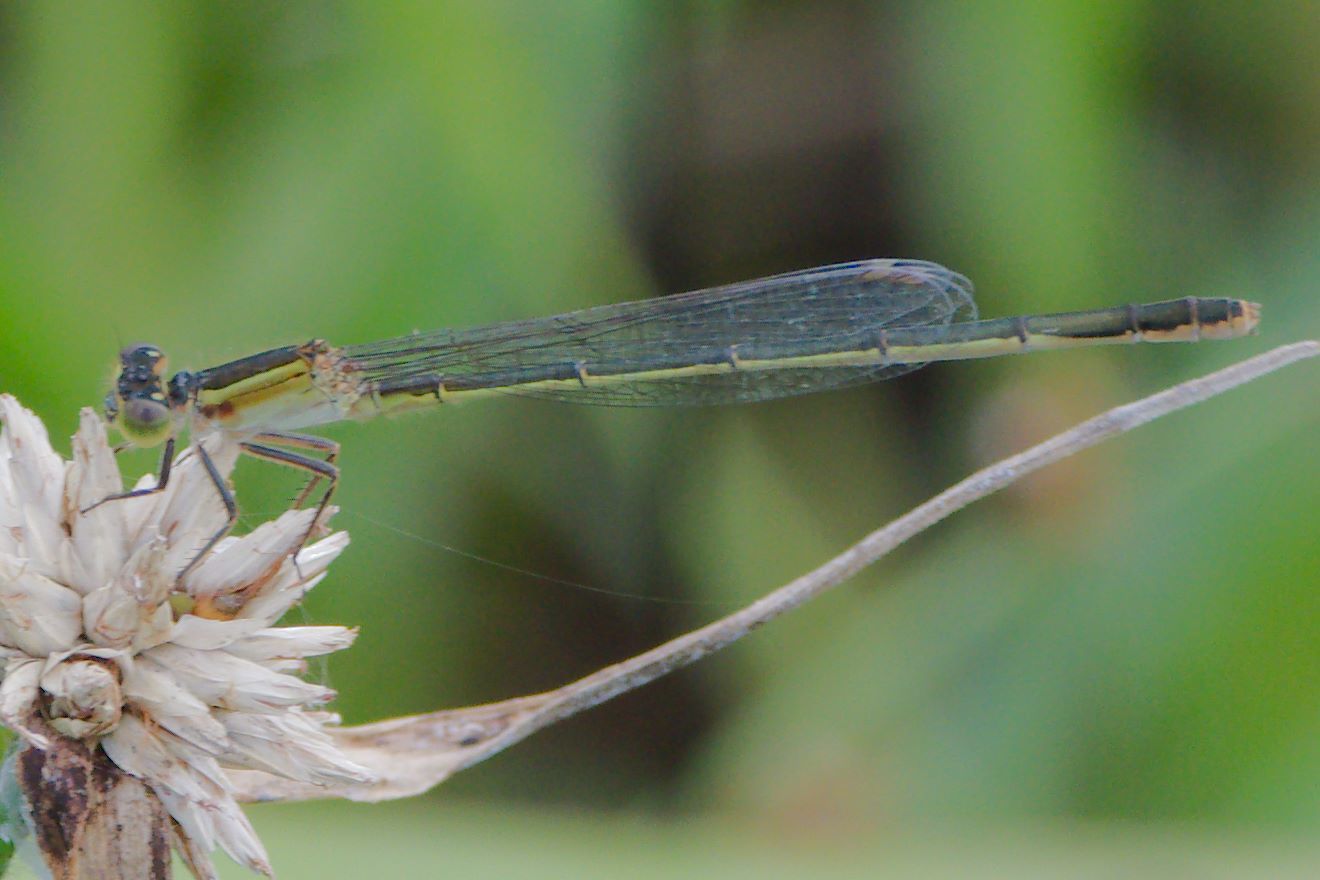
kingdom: Animalia
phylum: Arthropoda
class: Insecta
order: Odonata
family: Coenagrionidae
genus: Ischnura
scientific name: Ischnura ramburii
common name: Rambur's forktail
